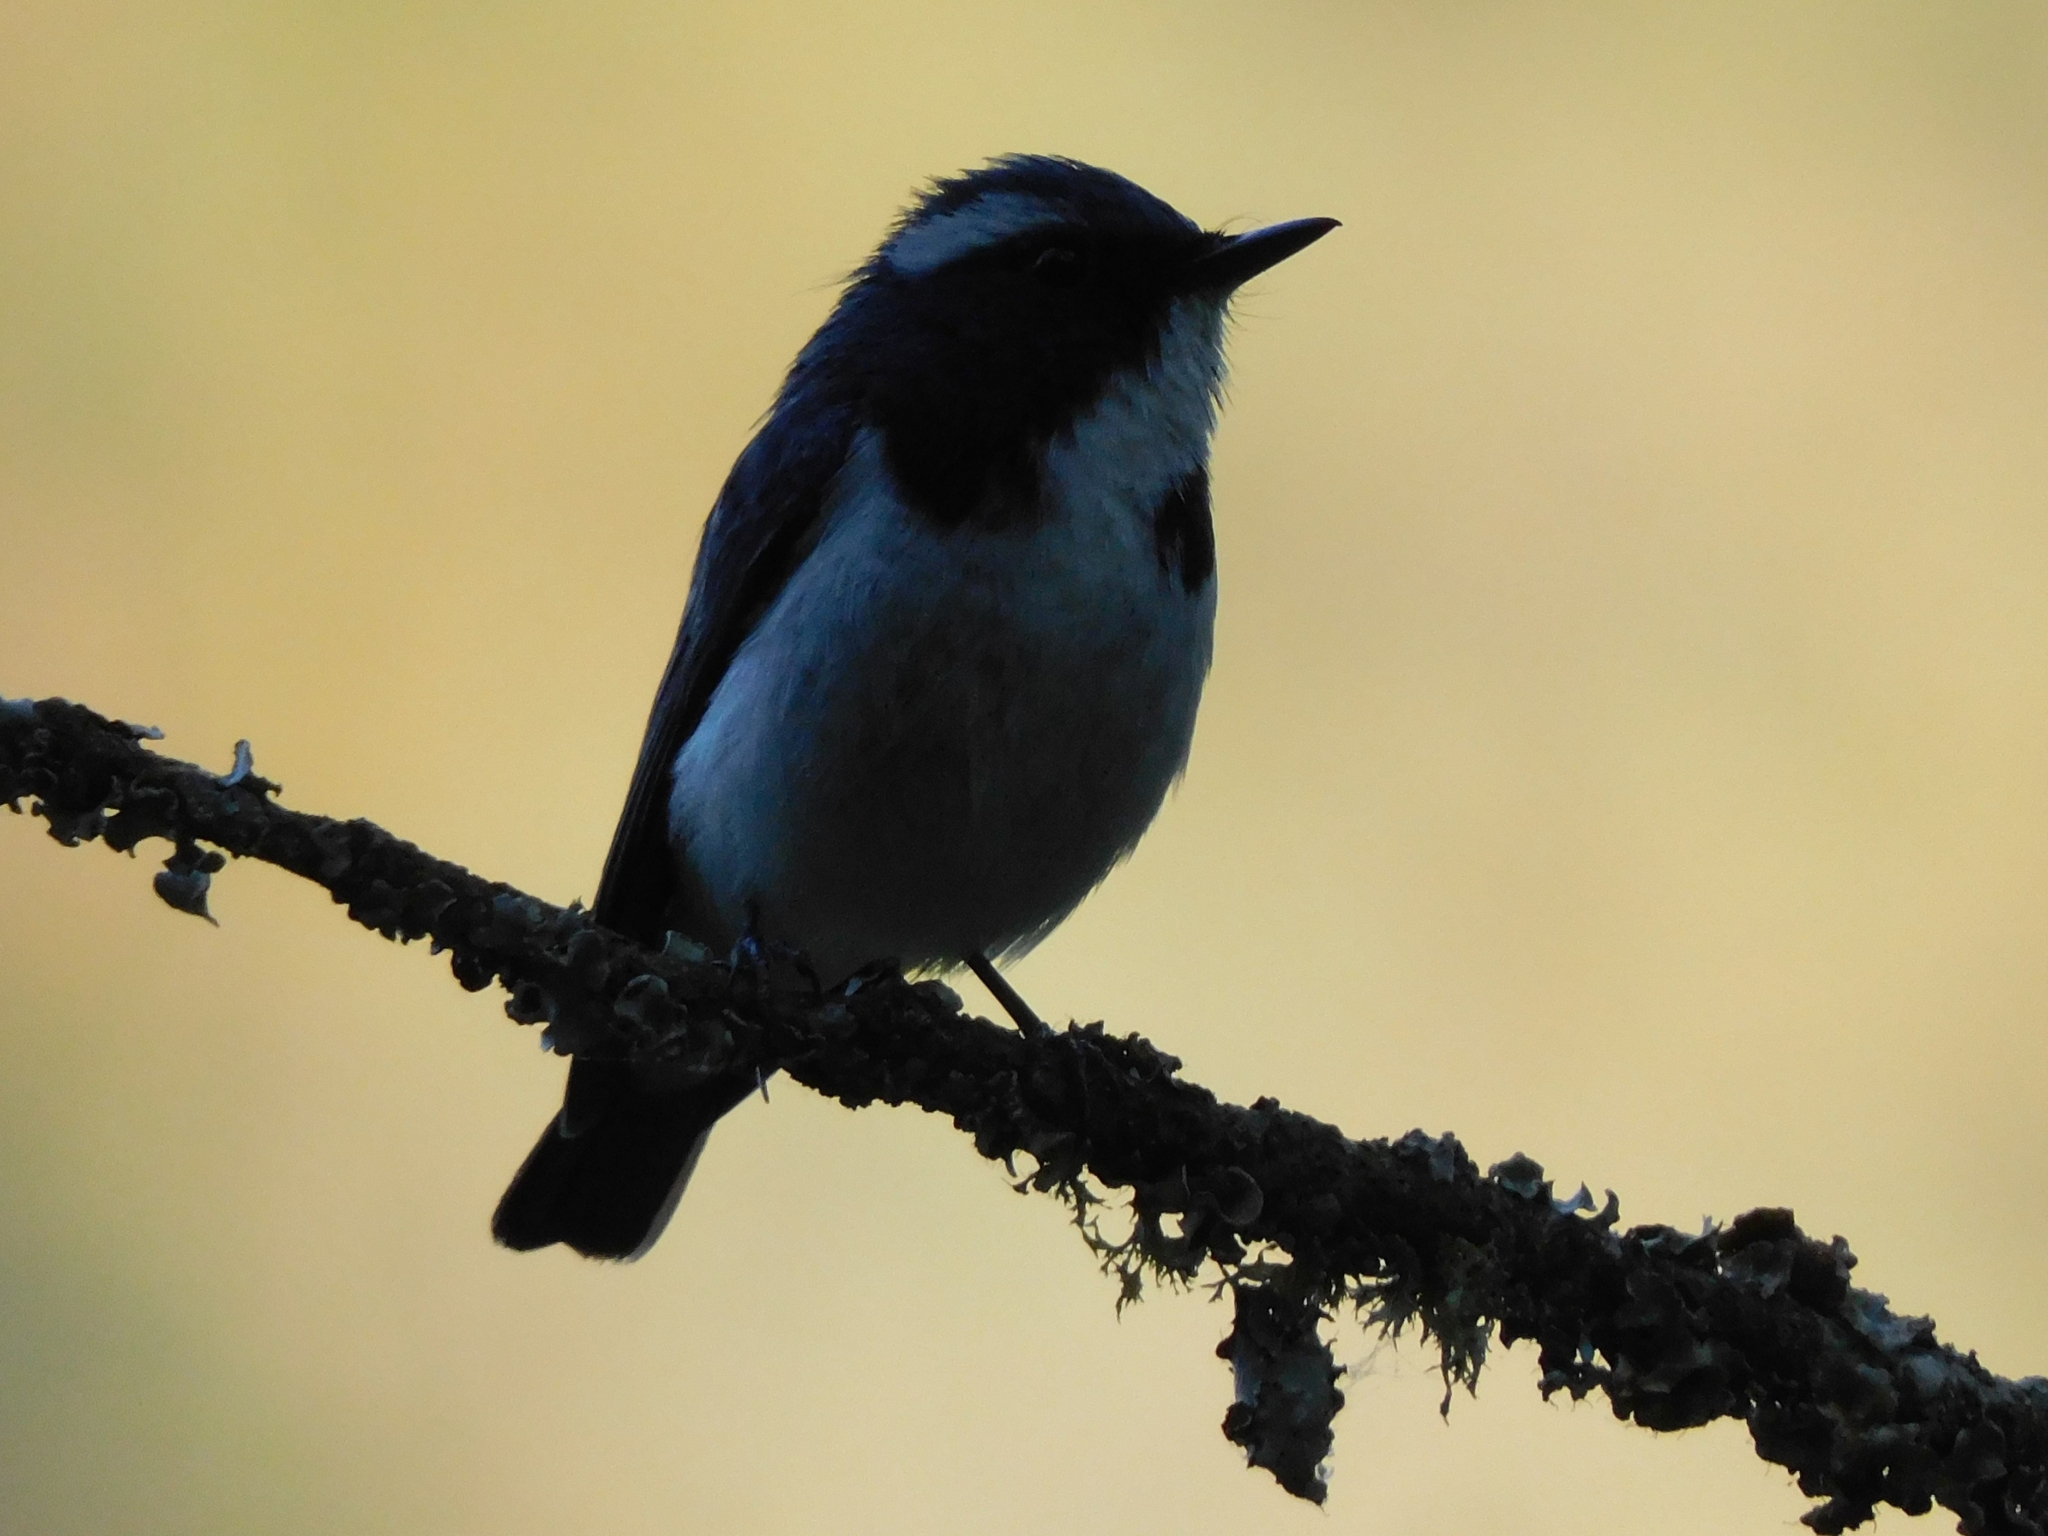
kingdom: Animalia
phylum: Chordata
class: Aves
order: Passeriformes
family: Muscicapidae
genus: Ficedula
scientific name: Ficedula superciliaris
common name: Ultramarine flycatcher
